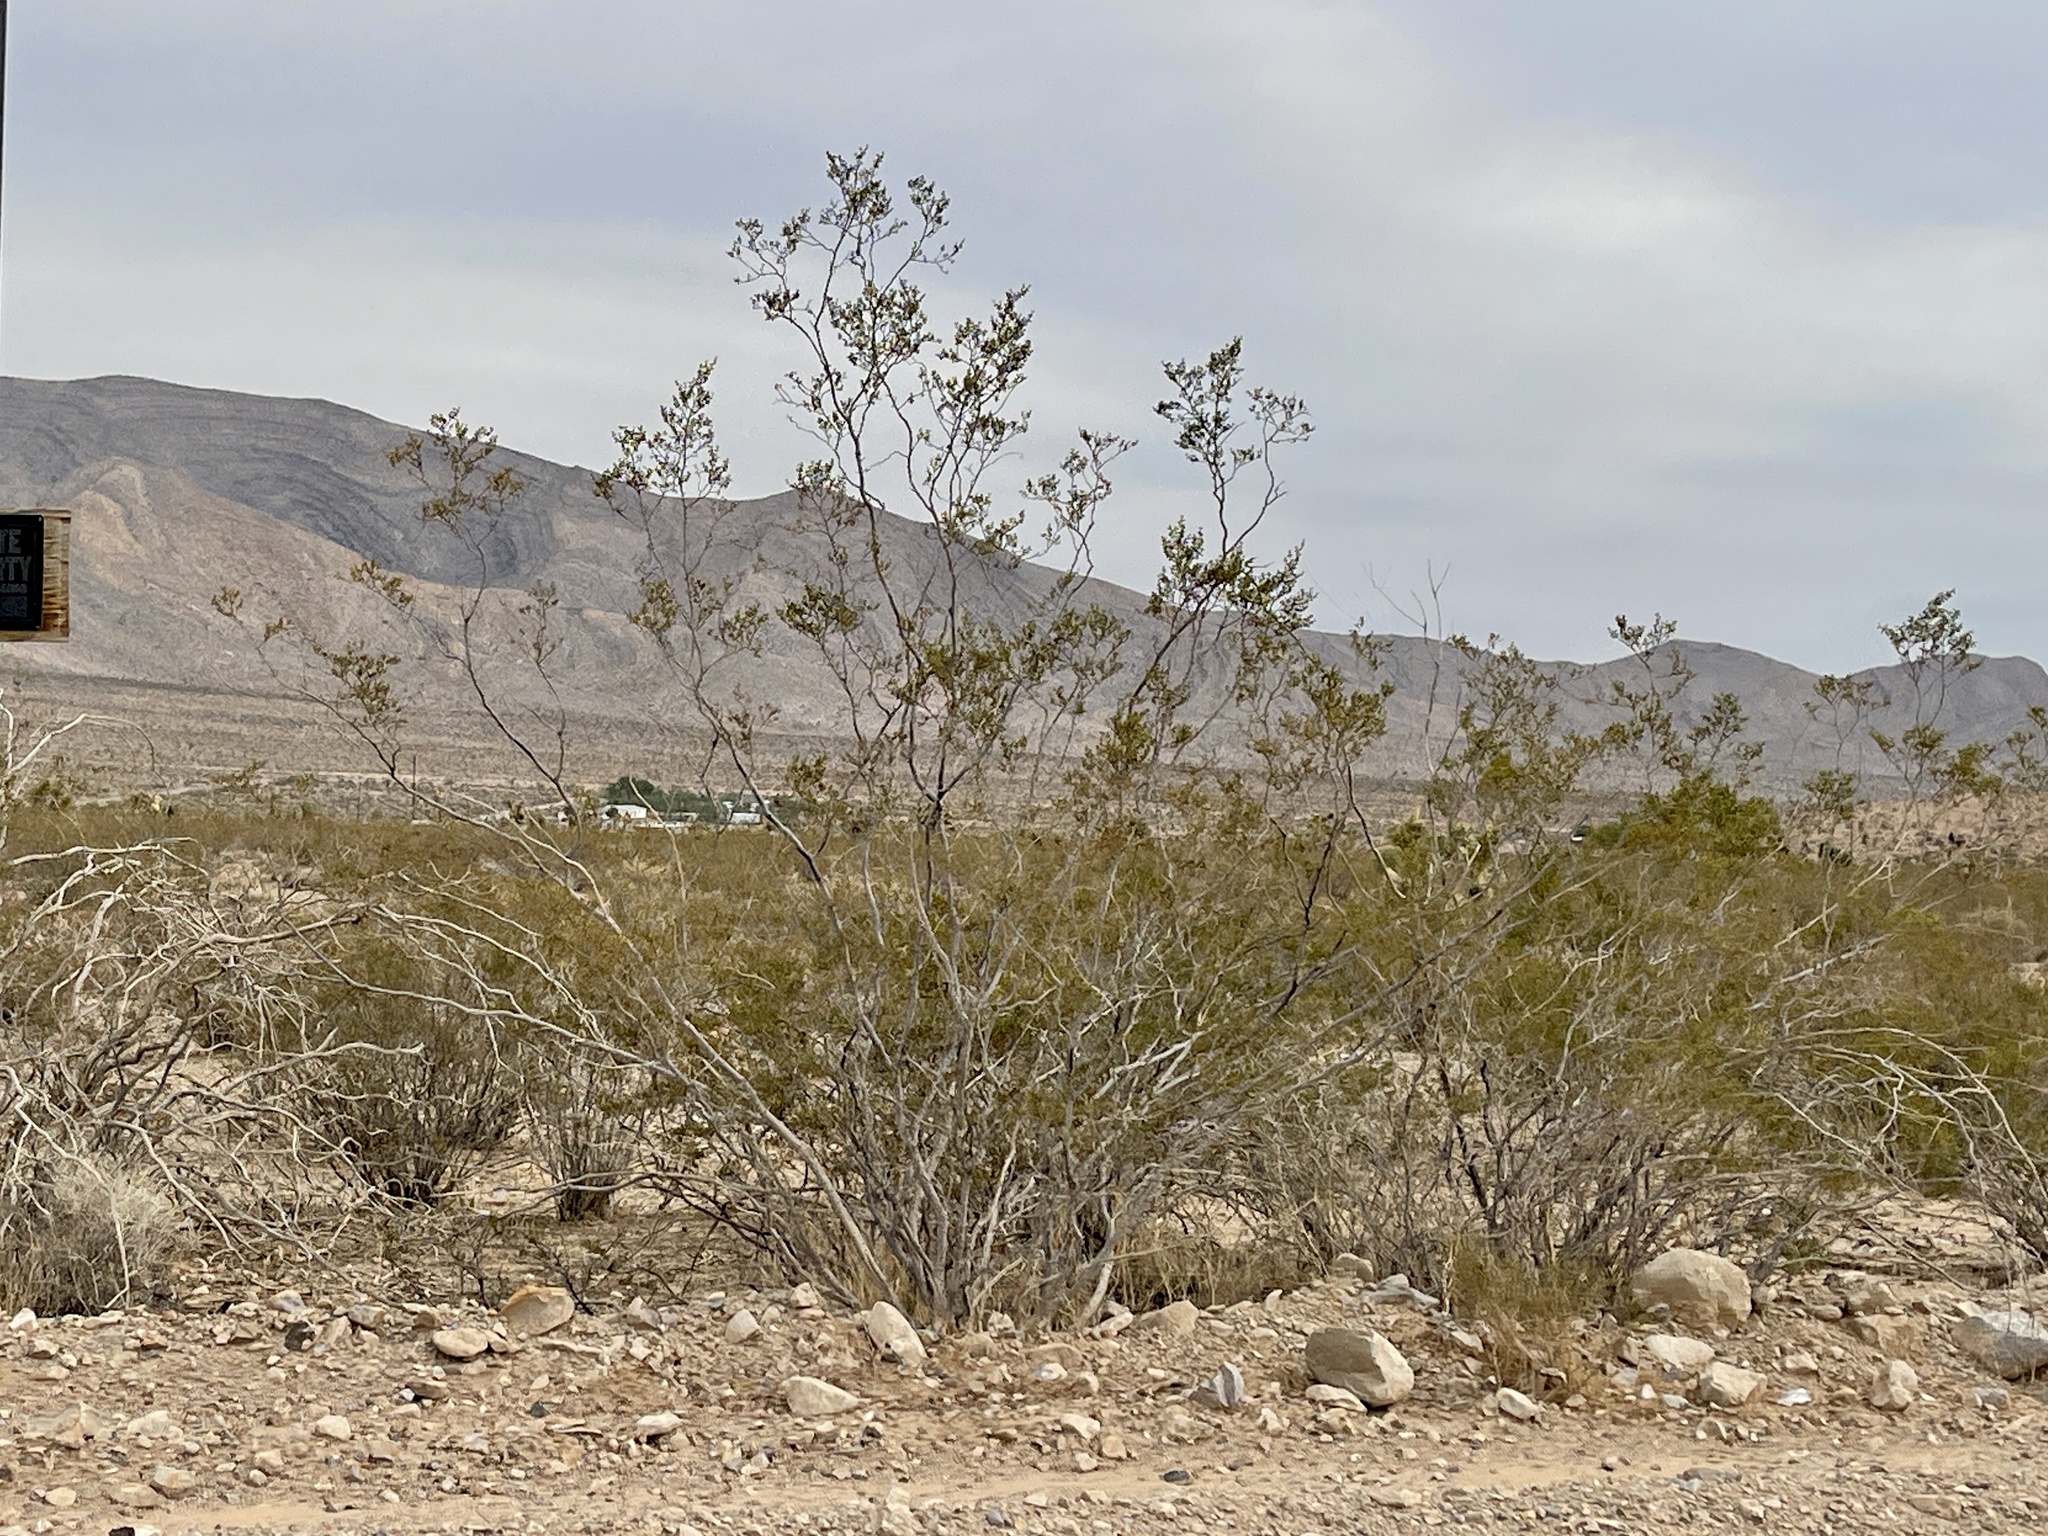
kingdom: Plantae
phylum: Tracheophyta
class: Magnoliopsida
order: Zygophyllales
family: Zygophyllaceae
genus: Larrea
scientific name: Larrea tridentata
